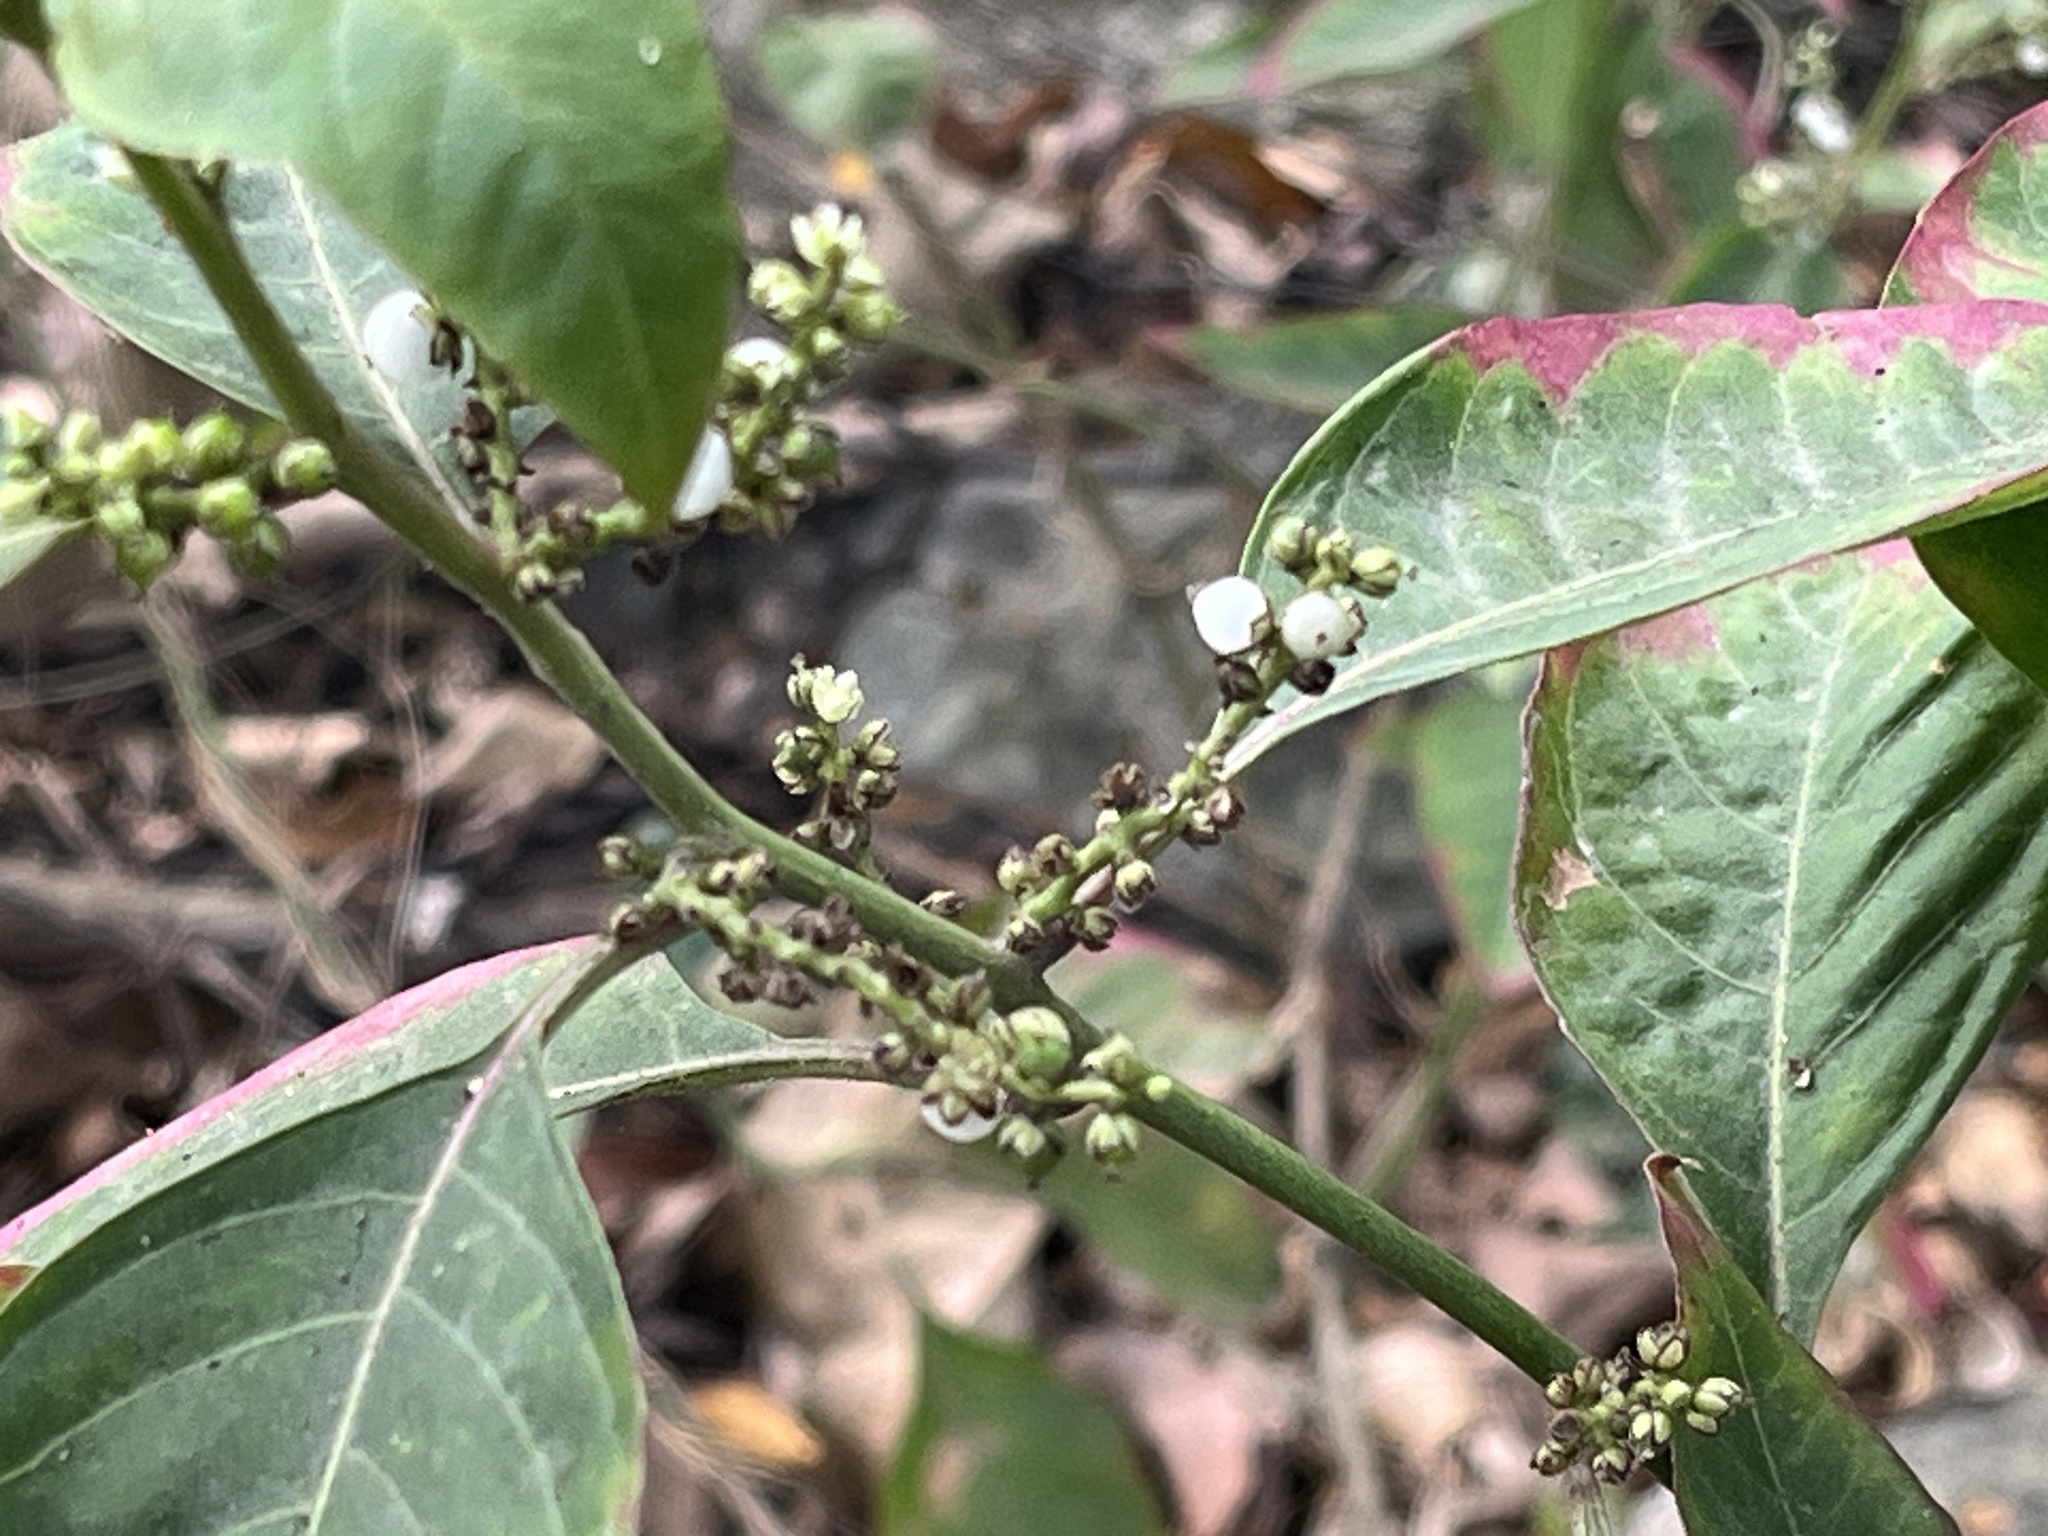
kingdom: Plantae
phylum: Tracheophyta
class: Magnoliopsida
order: Caryophyllales
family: Amaranthaceae
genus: Deeringia
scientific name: Deeringia polysperma
